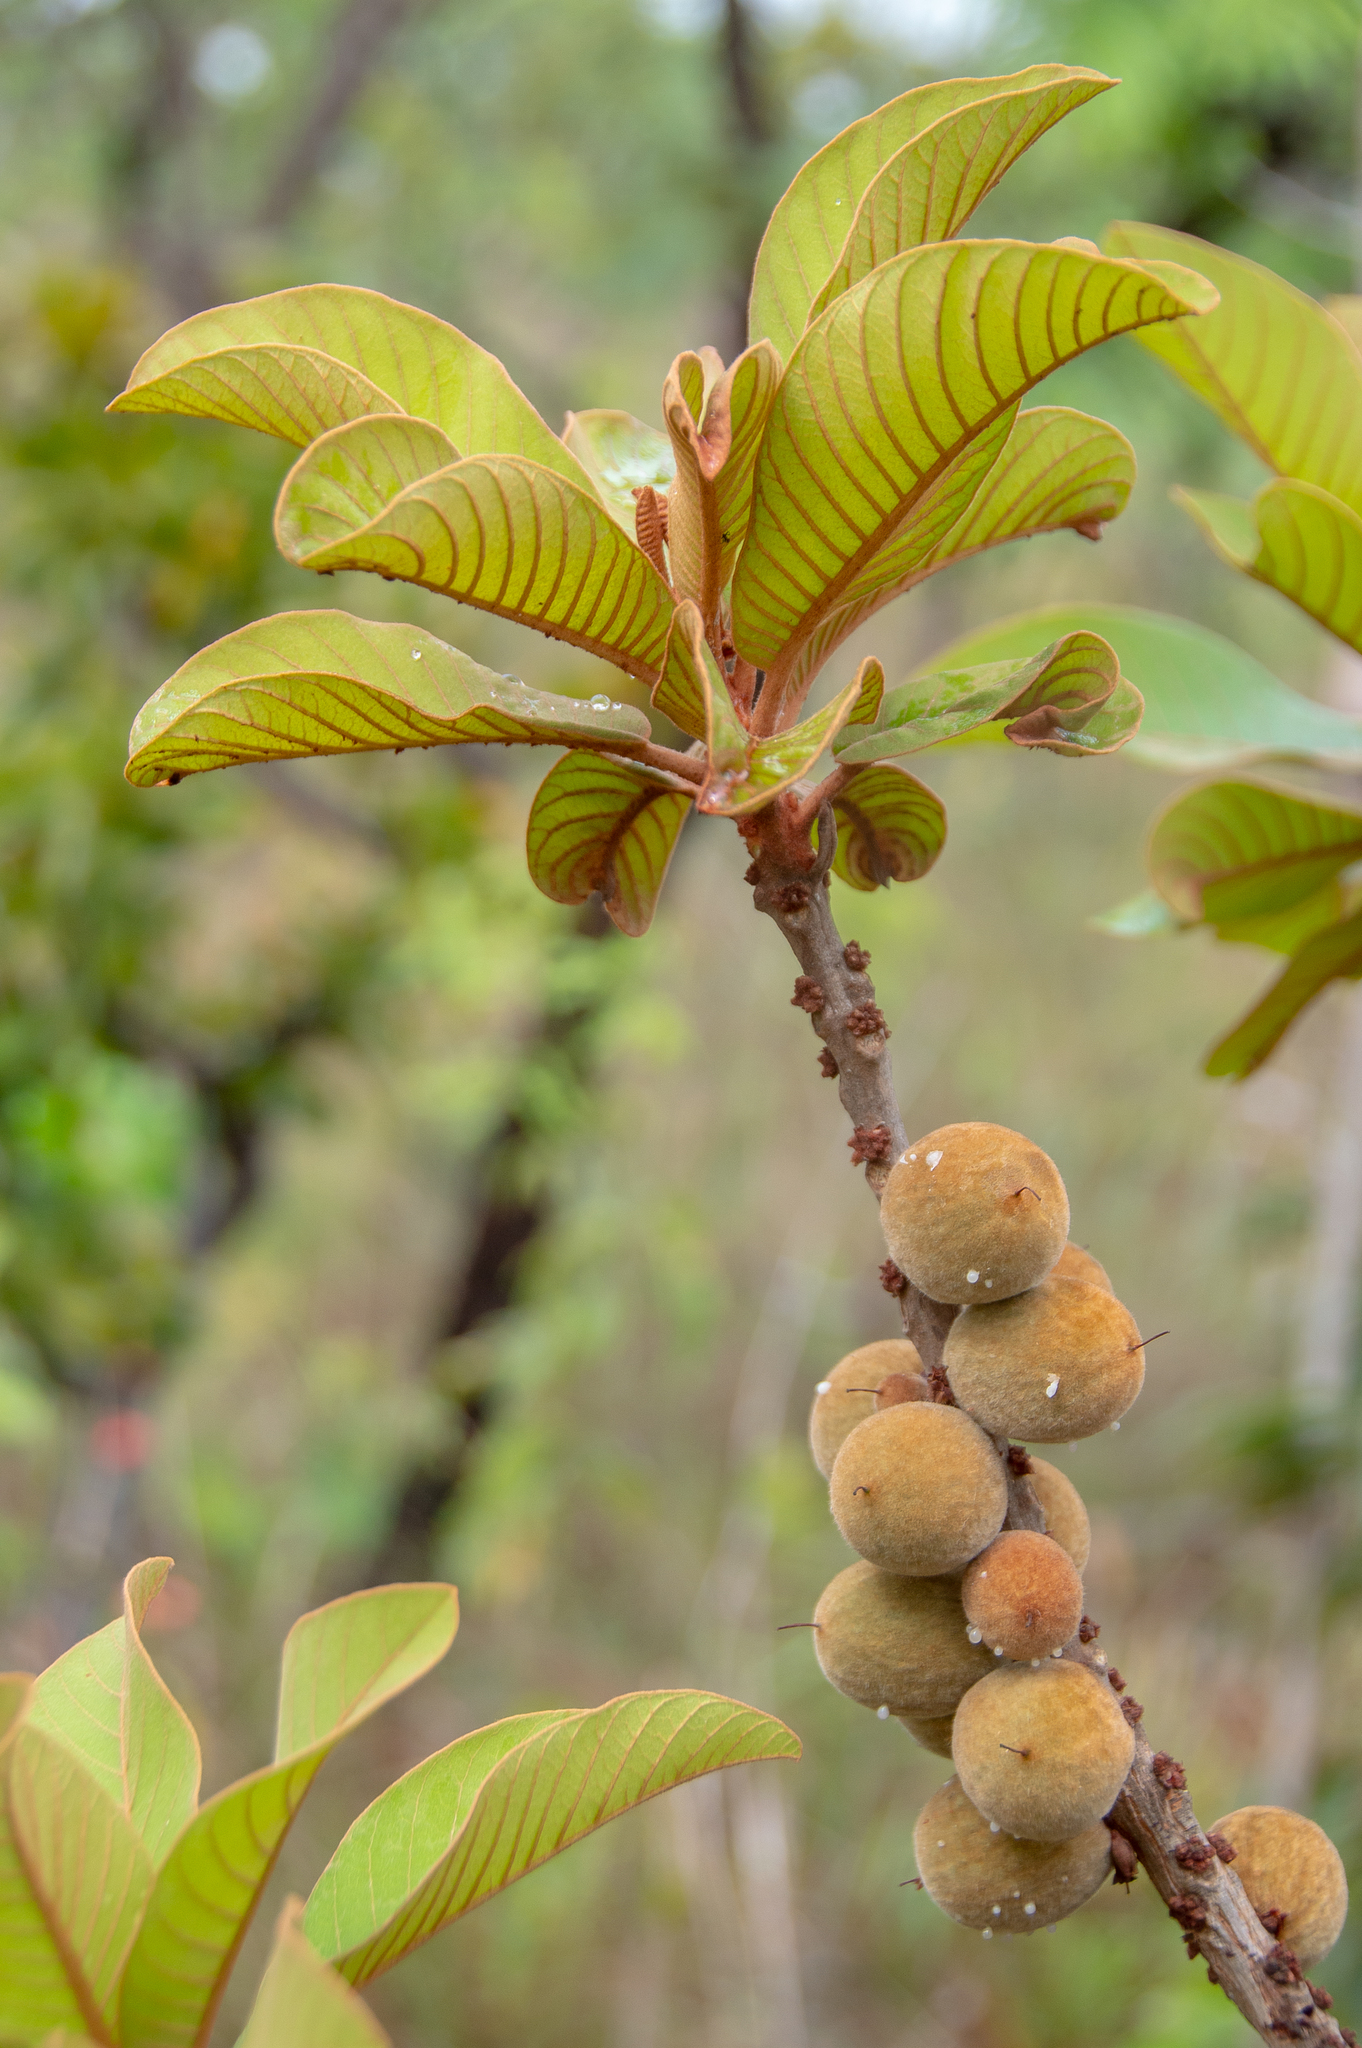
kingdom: Plantae
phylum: Tracheophyta
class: Magnoliopsida
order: Ericales
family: Sapotaceae
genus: Pouteria
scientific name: Pouteria torta
